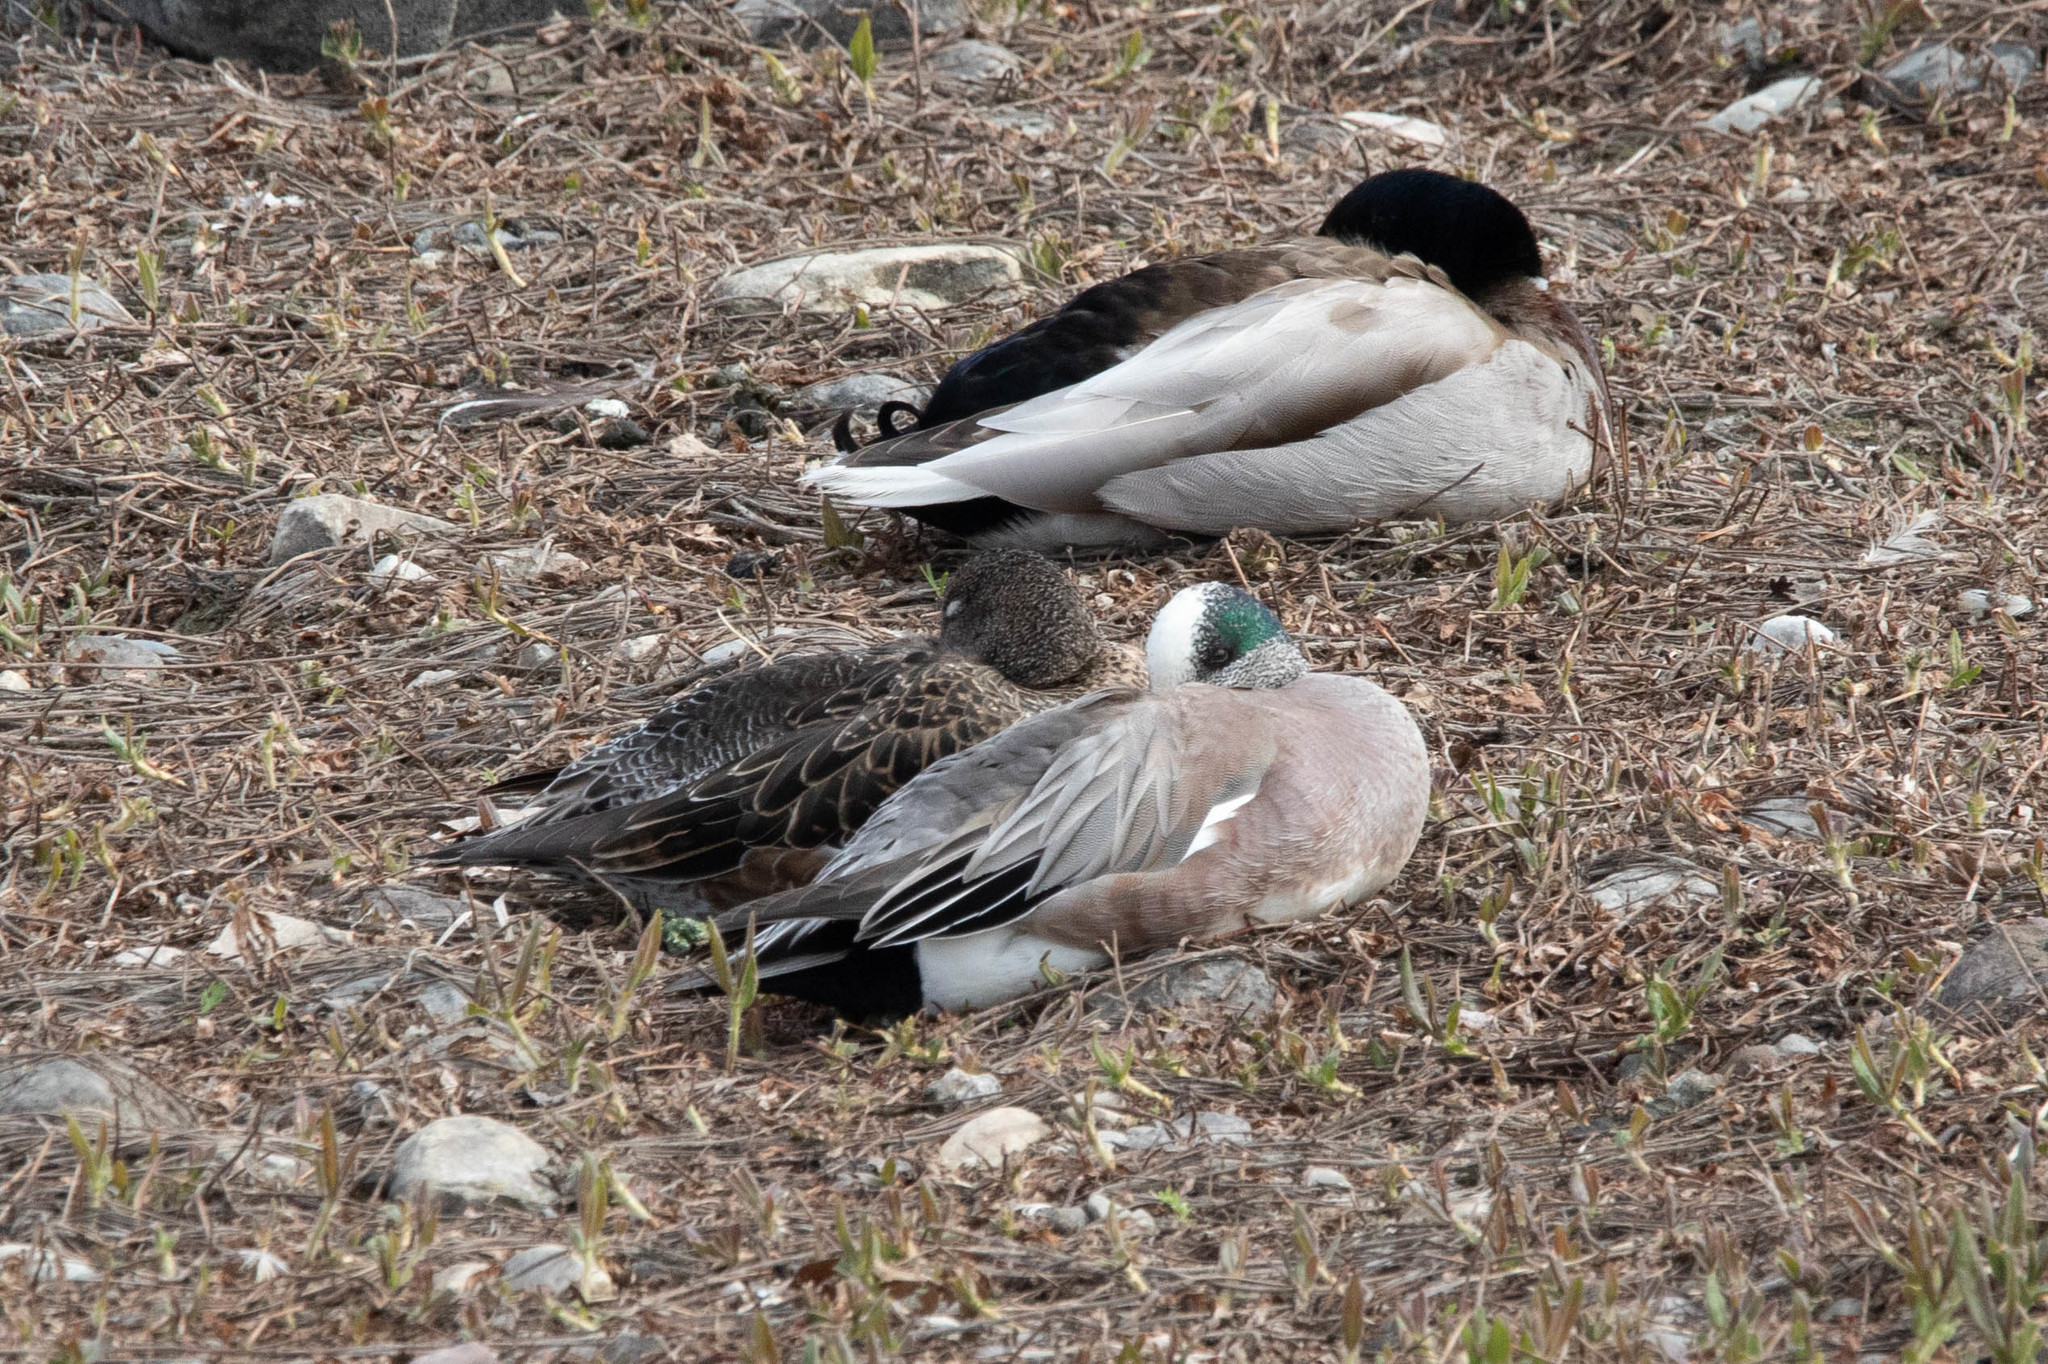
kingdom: Animalia
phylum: Chordata
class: Aves
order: Anseriformes
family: Anatidae
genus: Mareca
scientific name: Mareca americana
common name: American wigeon
